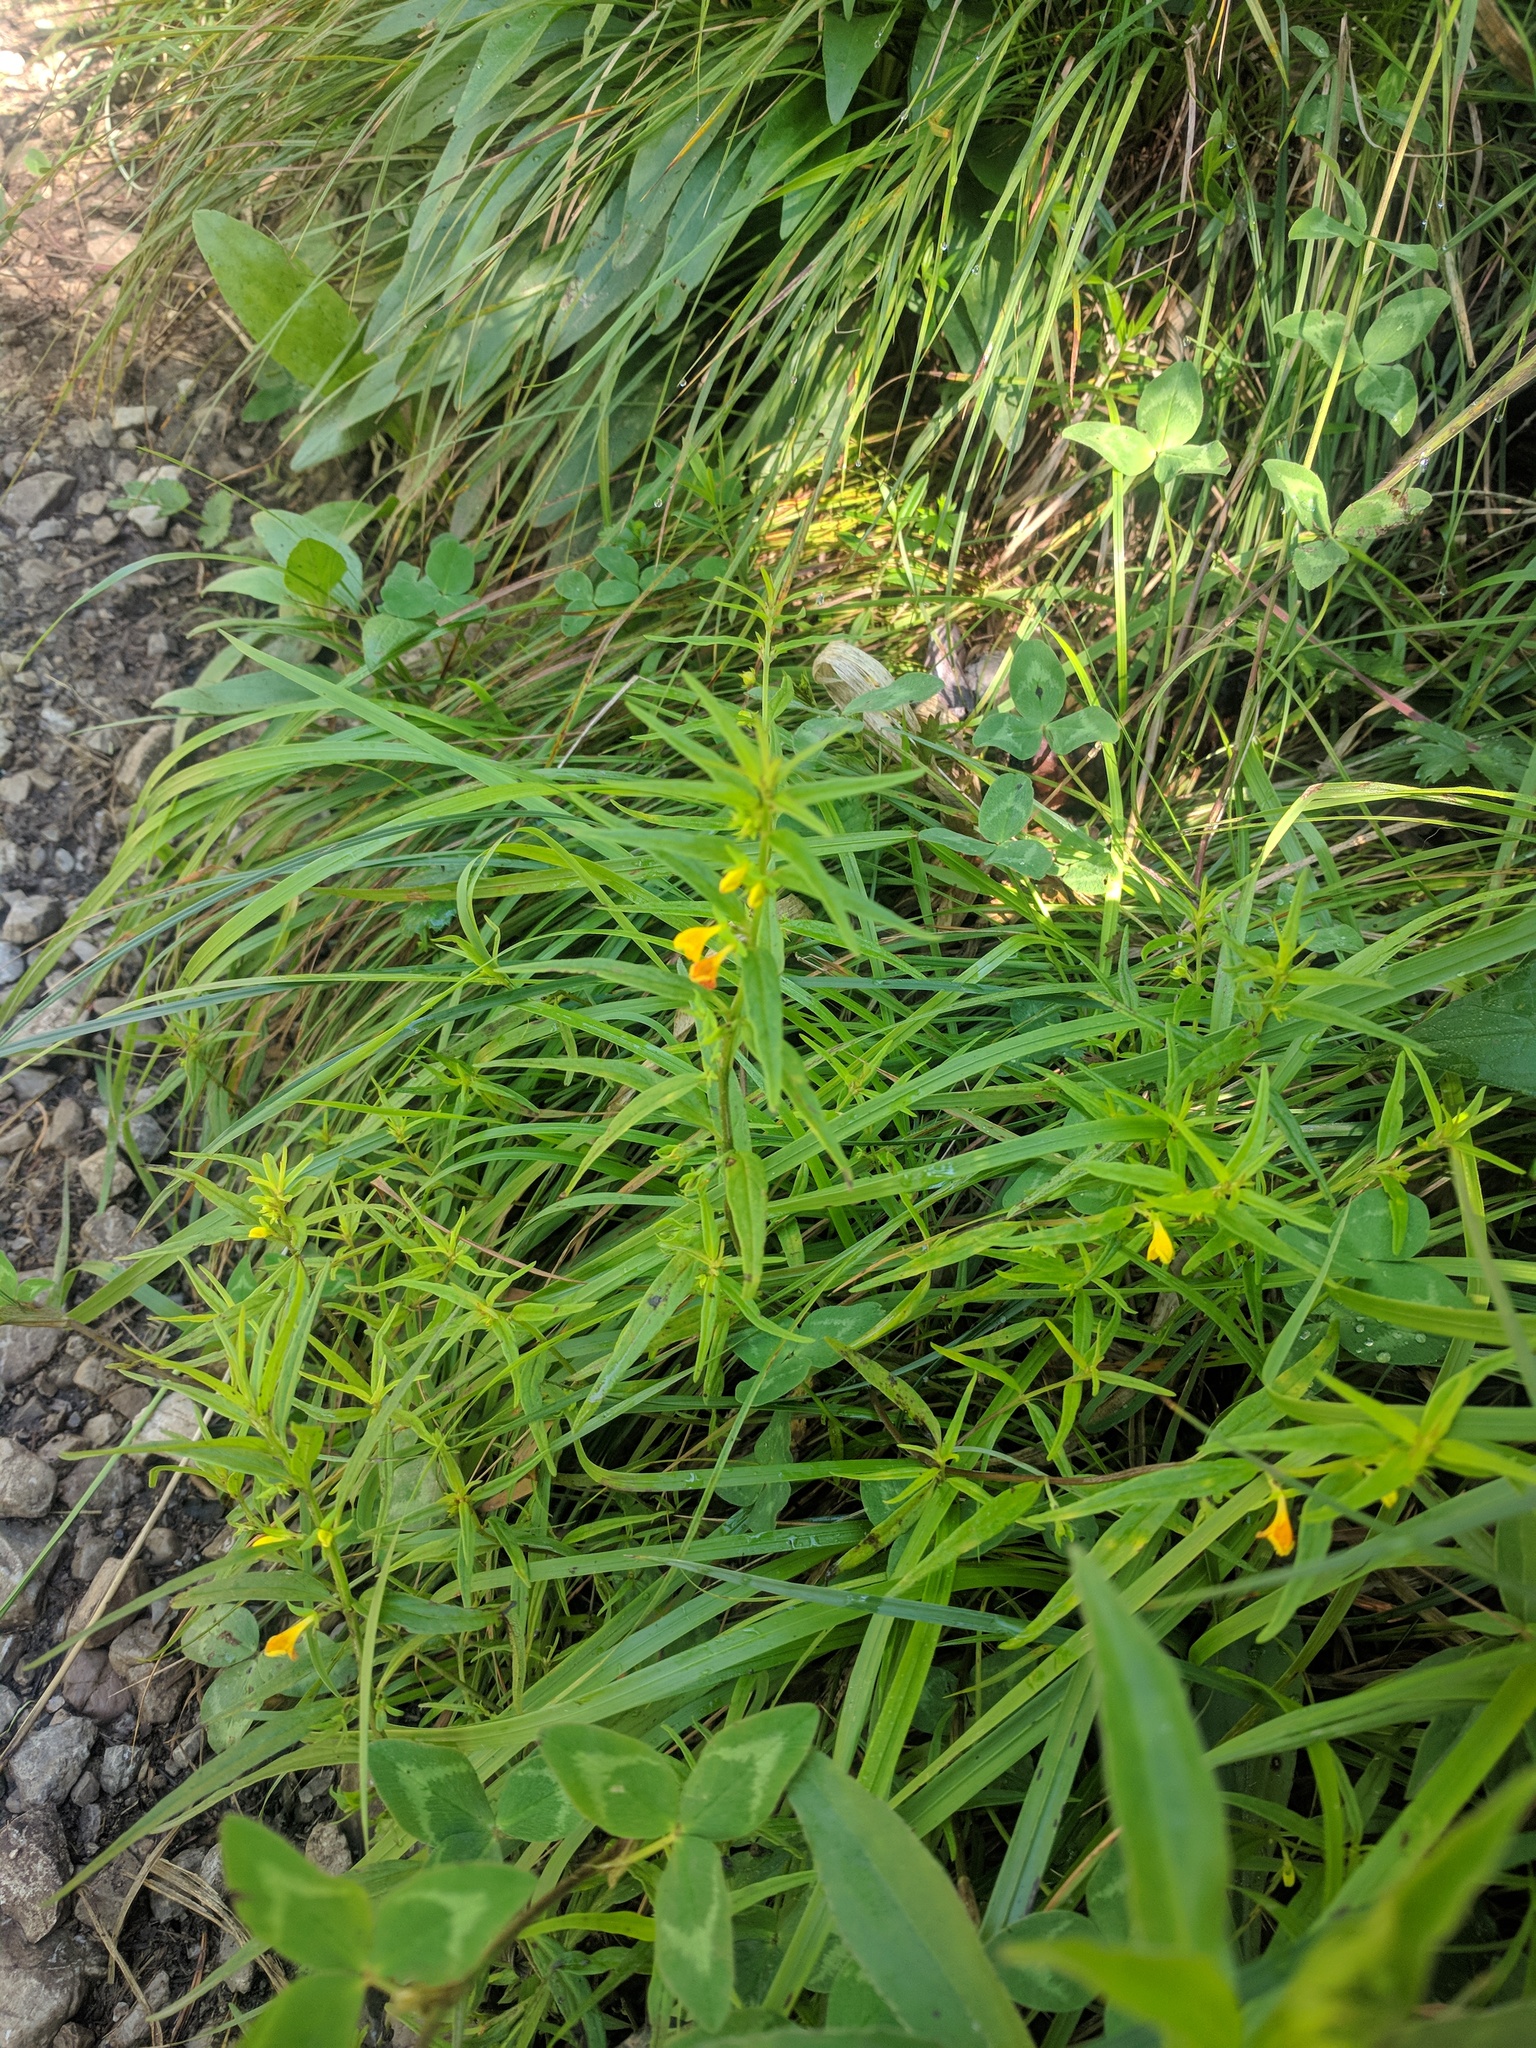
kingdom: Plantae
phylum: Tracheophyta
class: Magnoliopsida
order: Lamiales
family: Orobanchaceae
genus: Melampyrum
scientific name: Melampyrum sylvaticum
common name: Small cow-wheat
